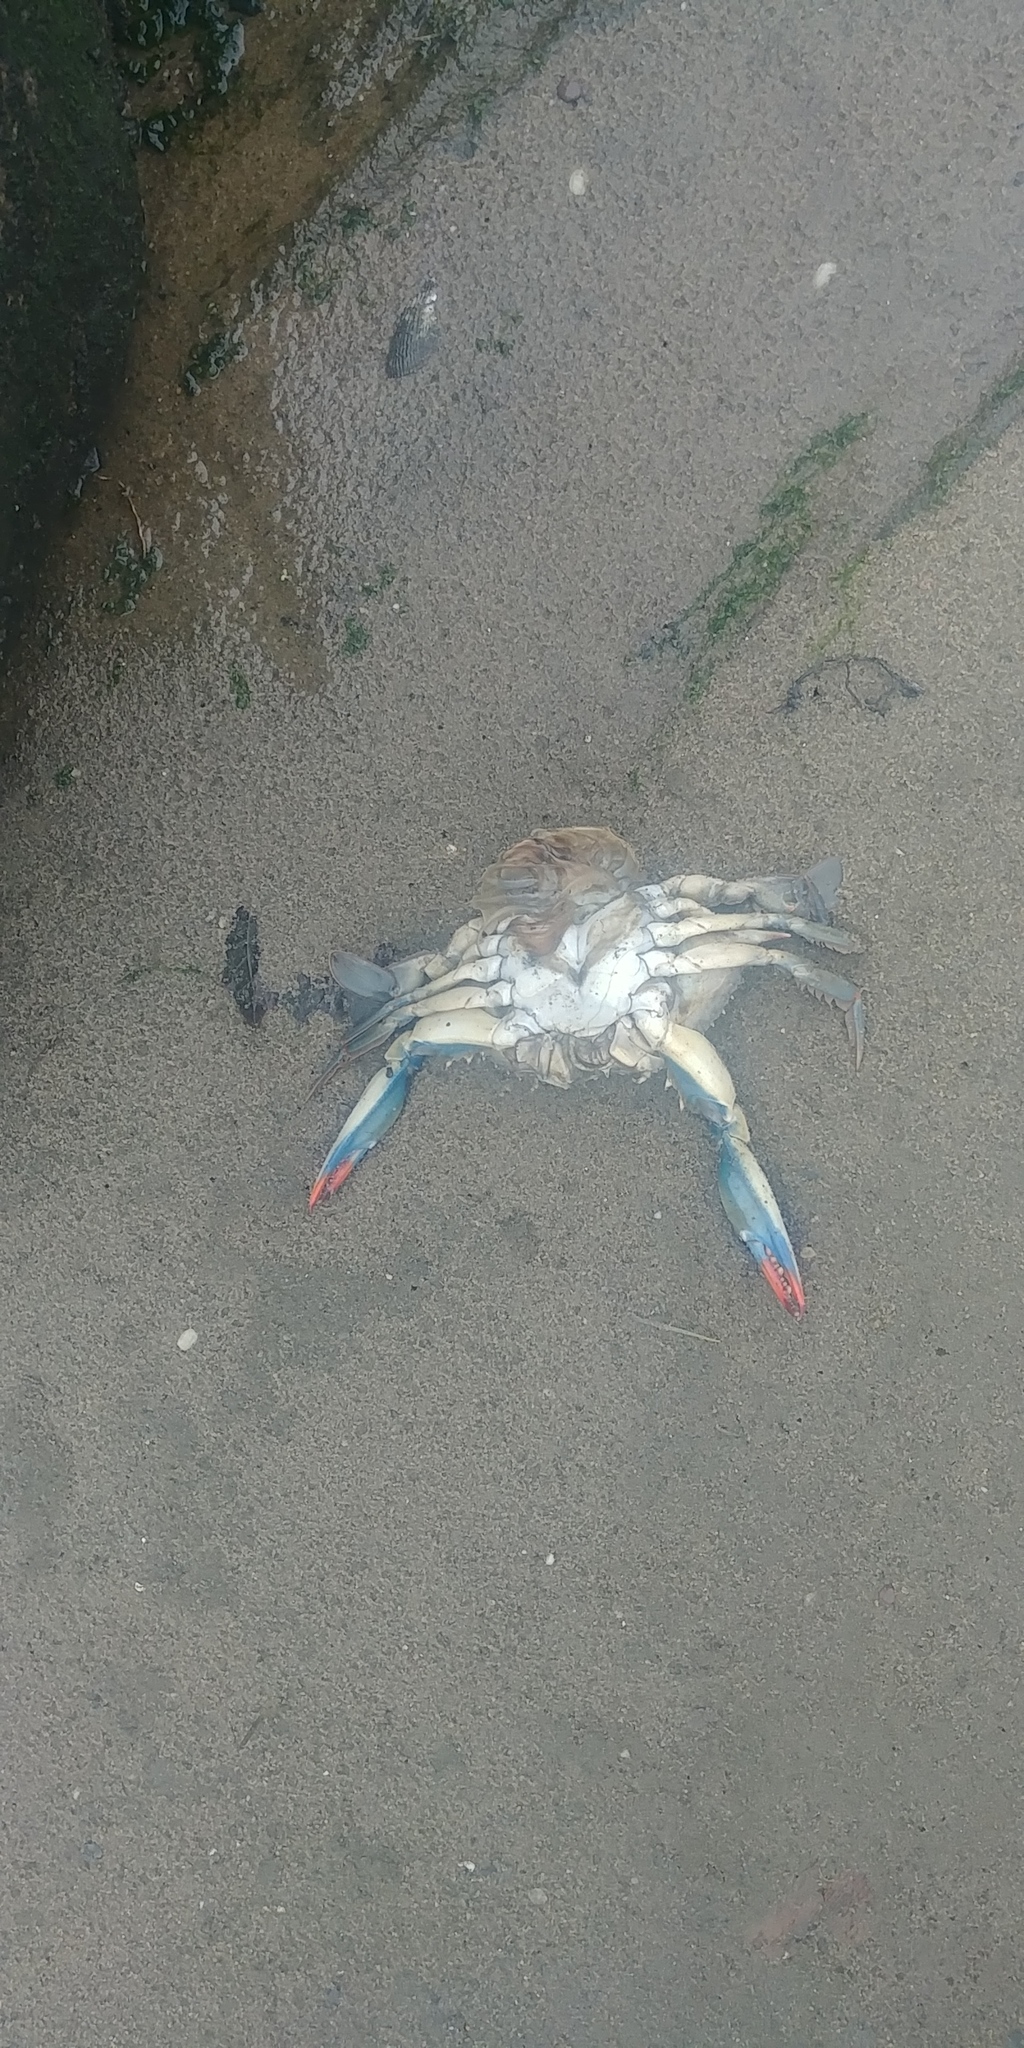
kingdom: Animalia
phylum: Arthropoda
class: Malacostraca
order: Decapoda
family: Portunidae
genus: Callinectes
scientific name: Callinectes sapidus
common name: Blue crab
